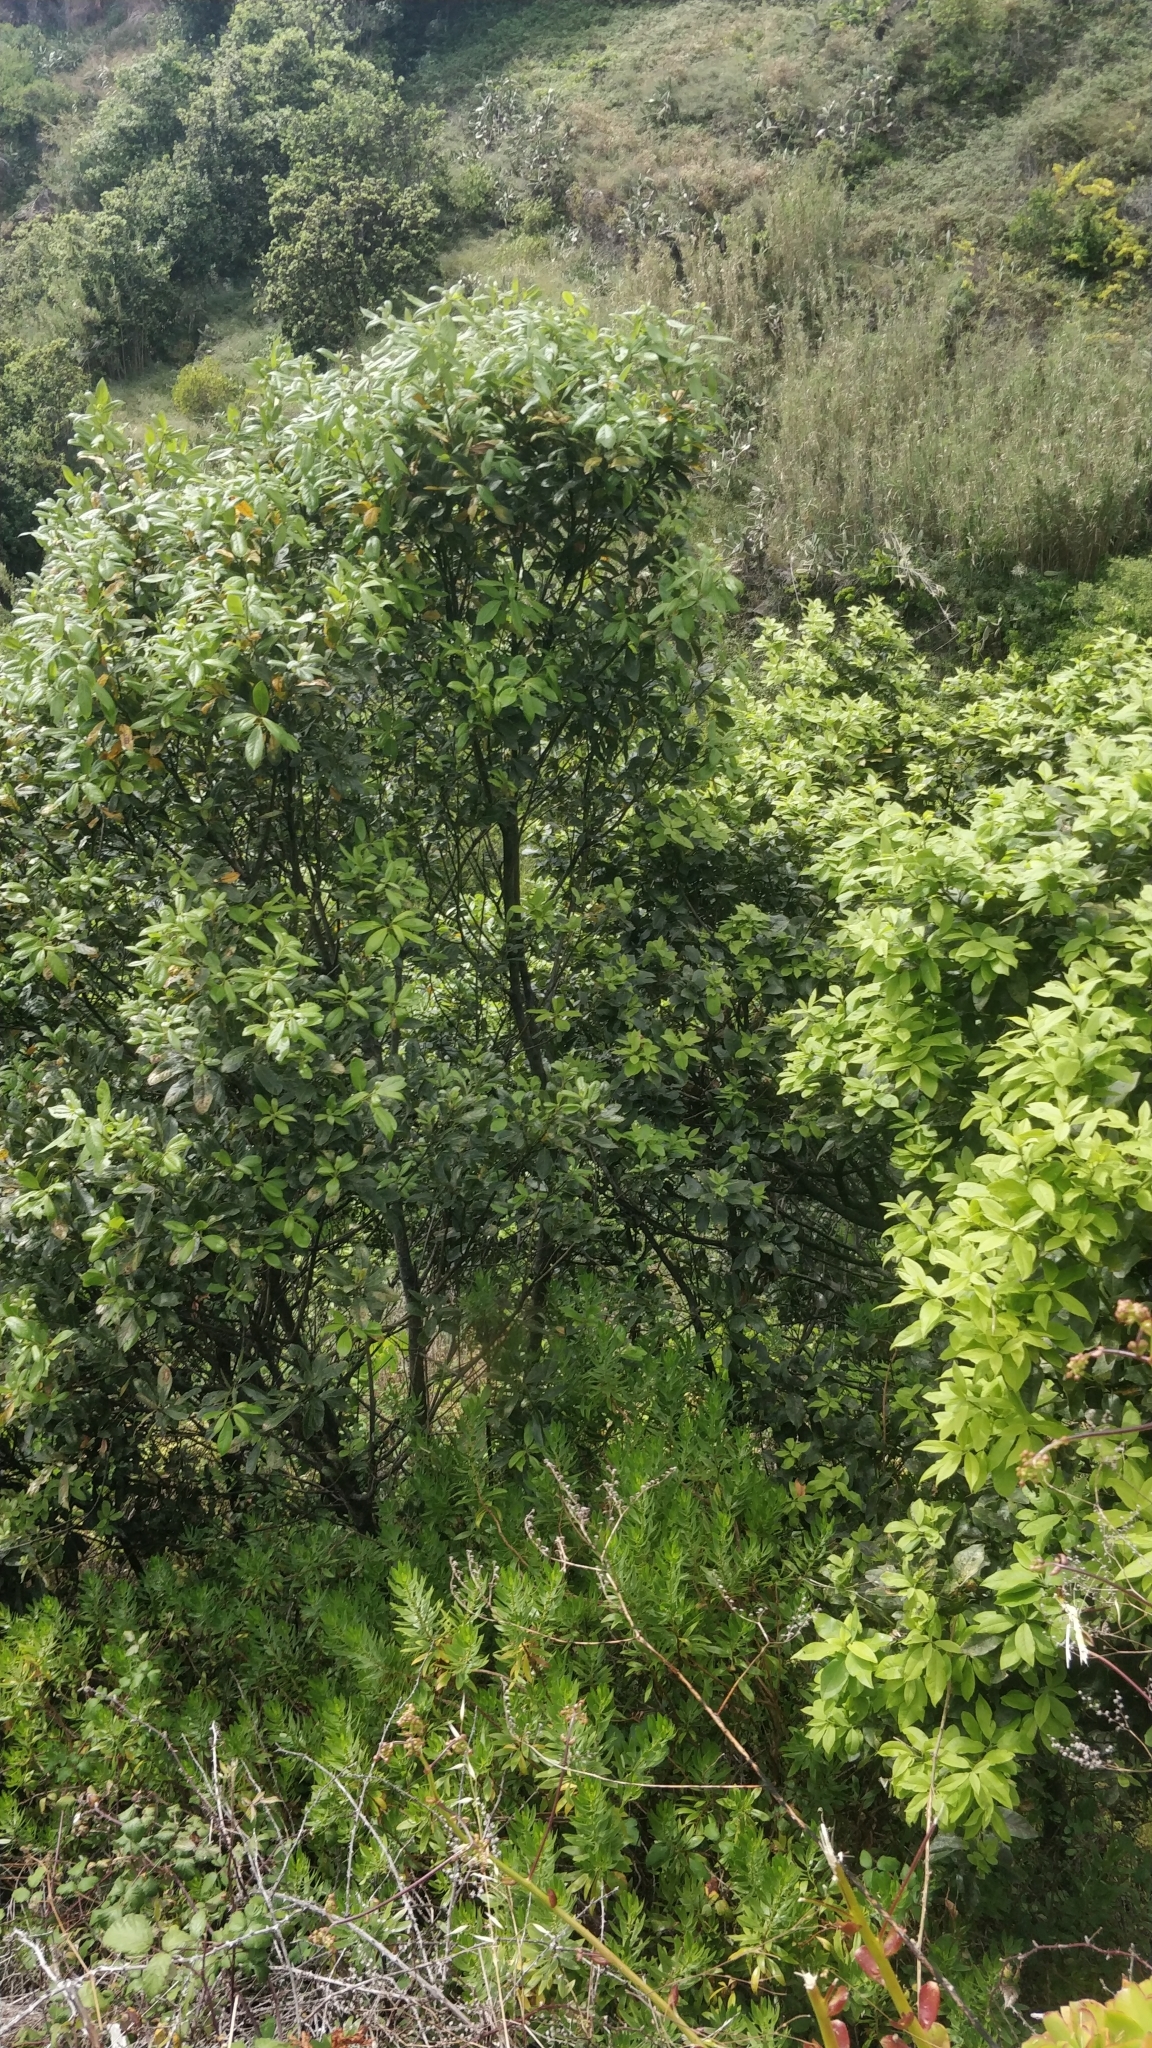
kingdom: Plantae
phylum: Tracheophyta
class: Magnoliopsida
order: Laurales
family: Lauraceae
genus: Laurus
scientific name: Laurus novocanariensis
